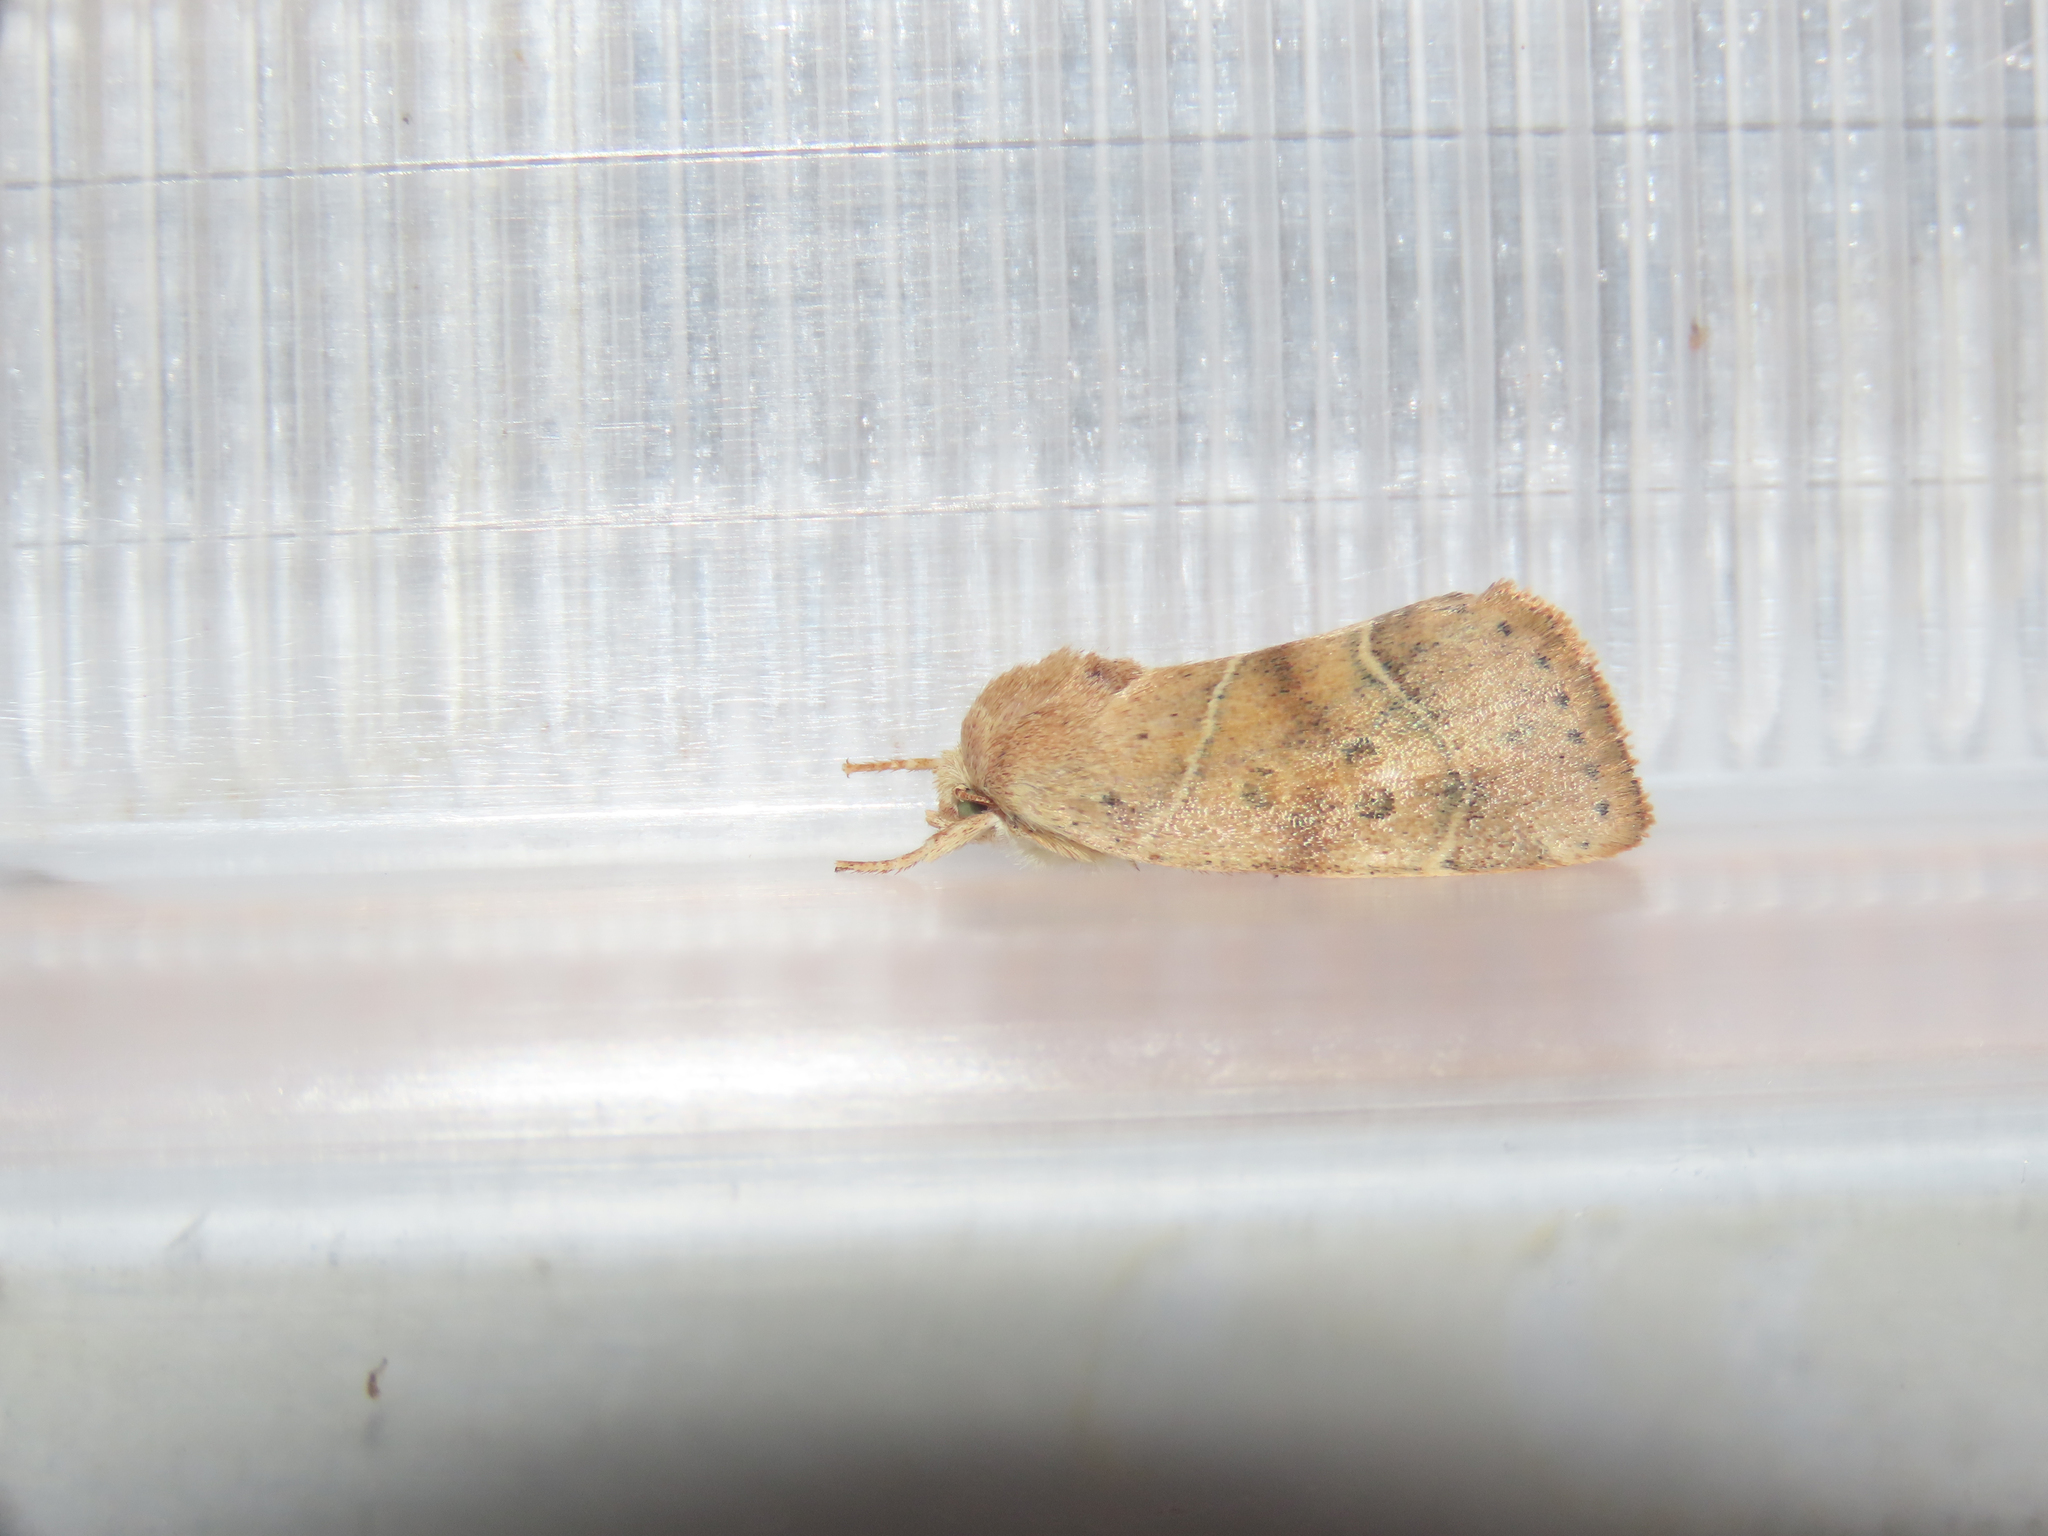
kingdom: Animalia
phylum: Arthropoda
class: Insecta
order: Lepidoptera
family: Noctuidae
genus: Cosmia
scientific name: Cosmia calami
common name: American dun-bar moth
